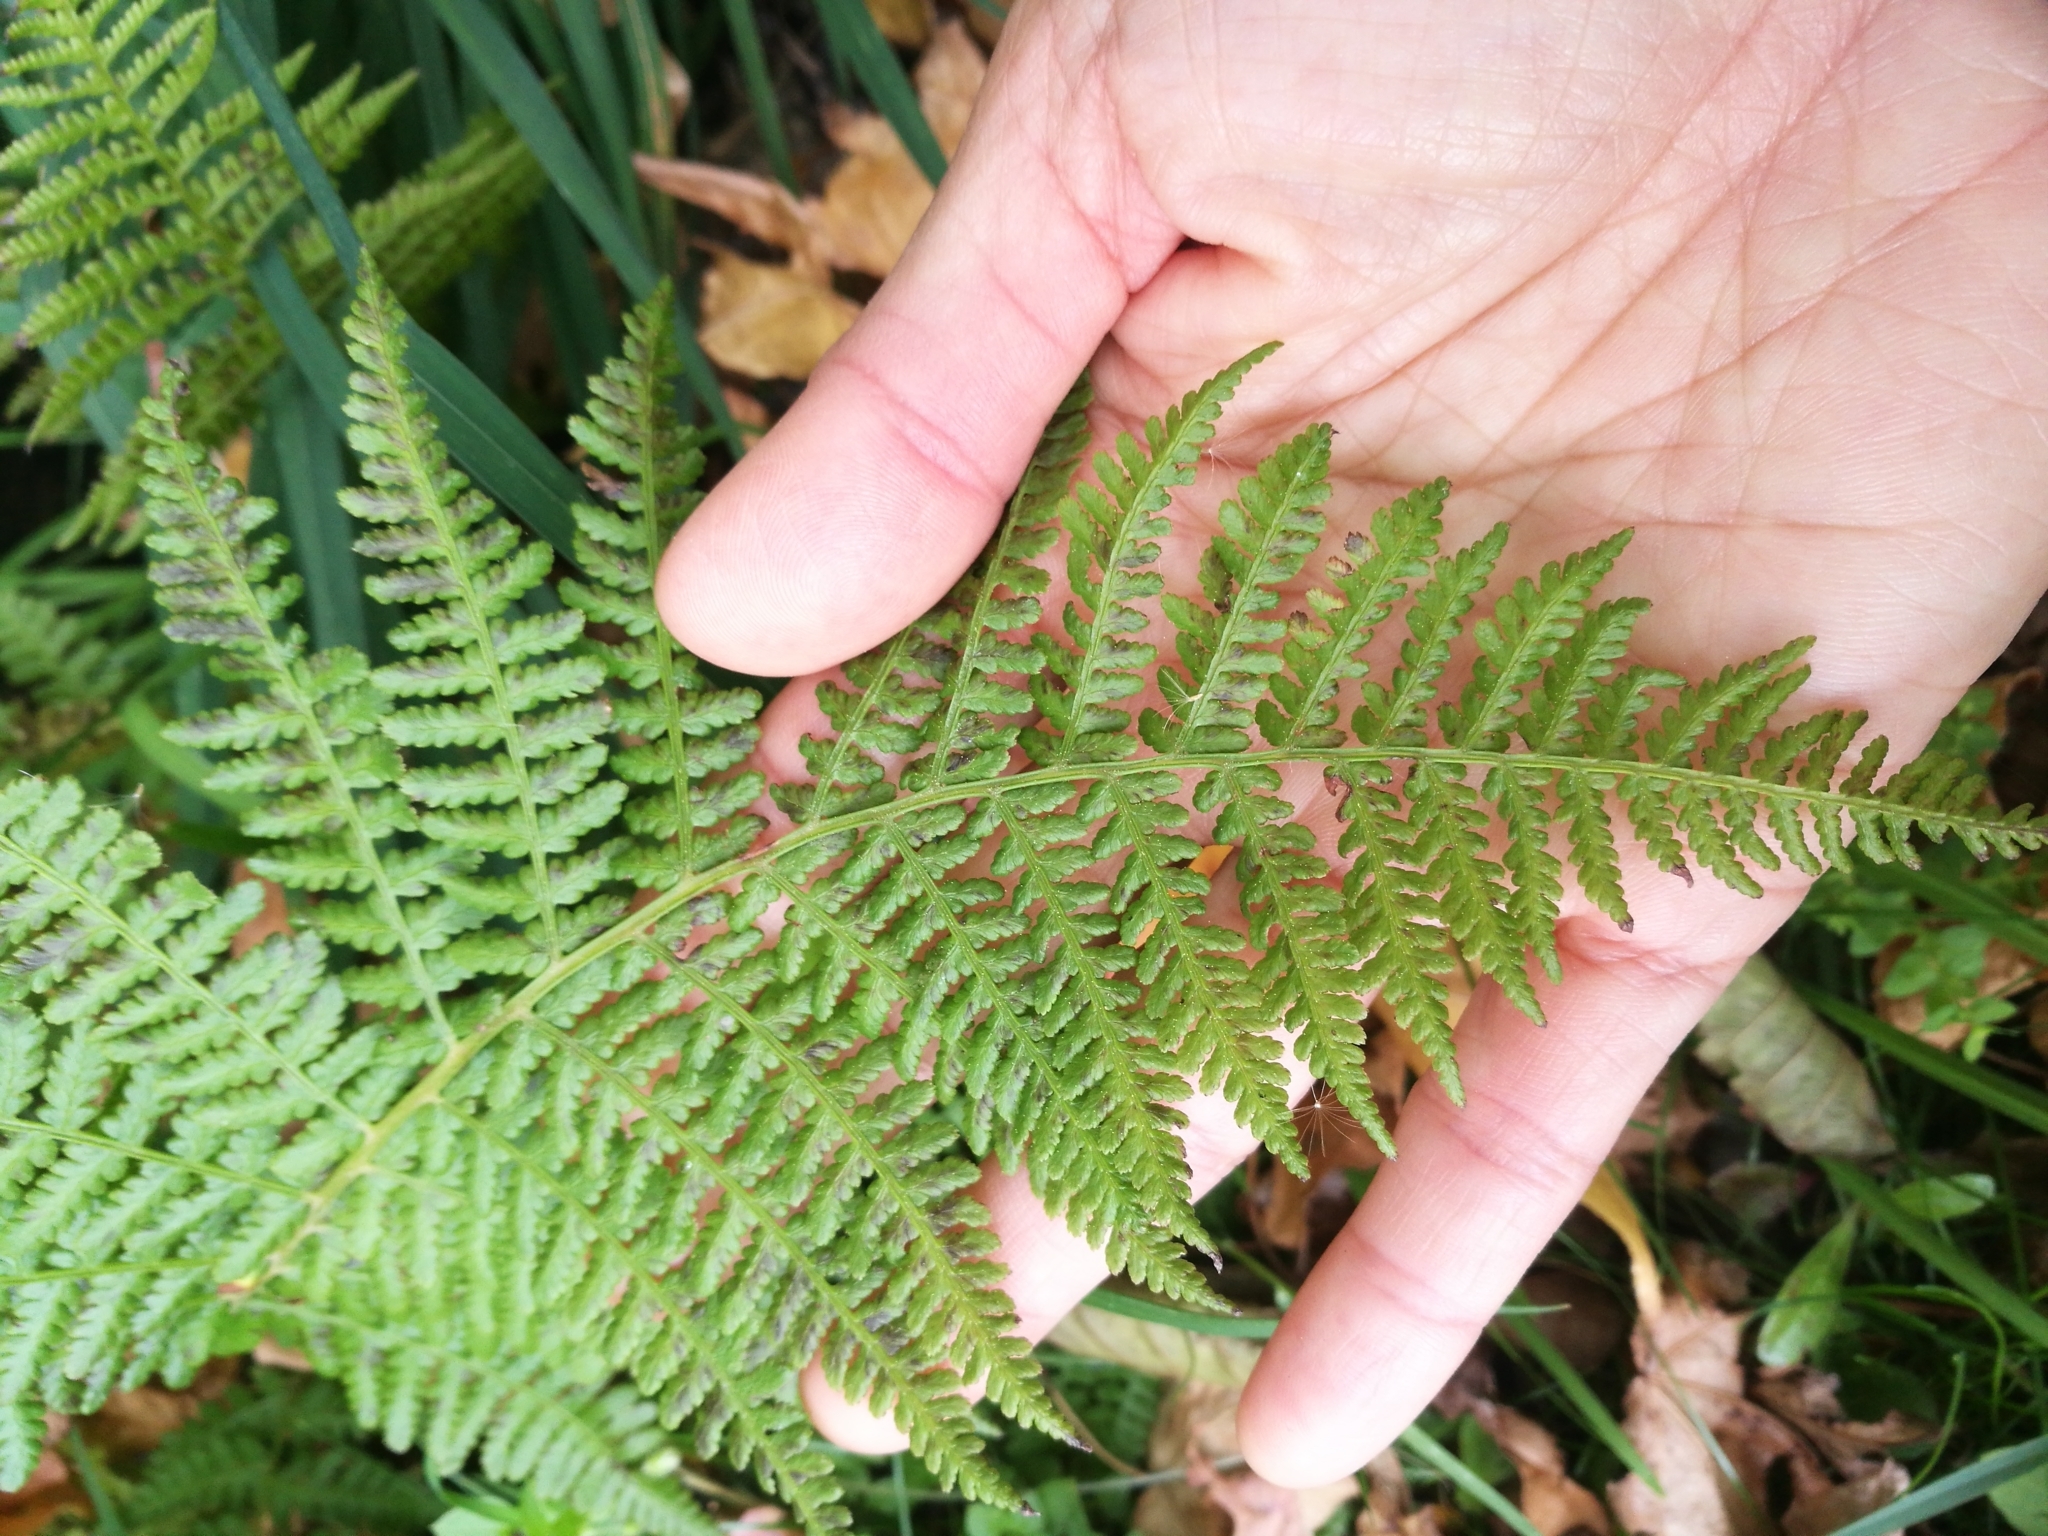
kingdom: Plantae
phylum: Tracheophyta
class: Polypodiopsida
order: Polypodiales
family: Athyriaceae
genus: Athyrium
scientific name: Athyrium filix-femina
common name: Lady fern
